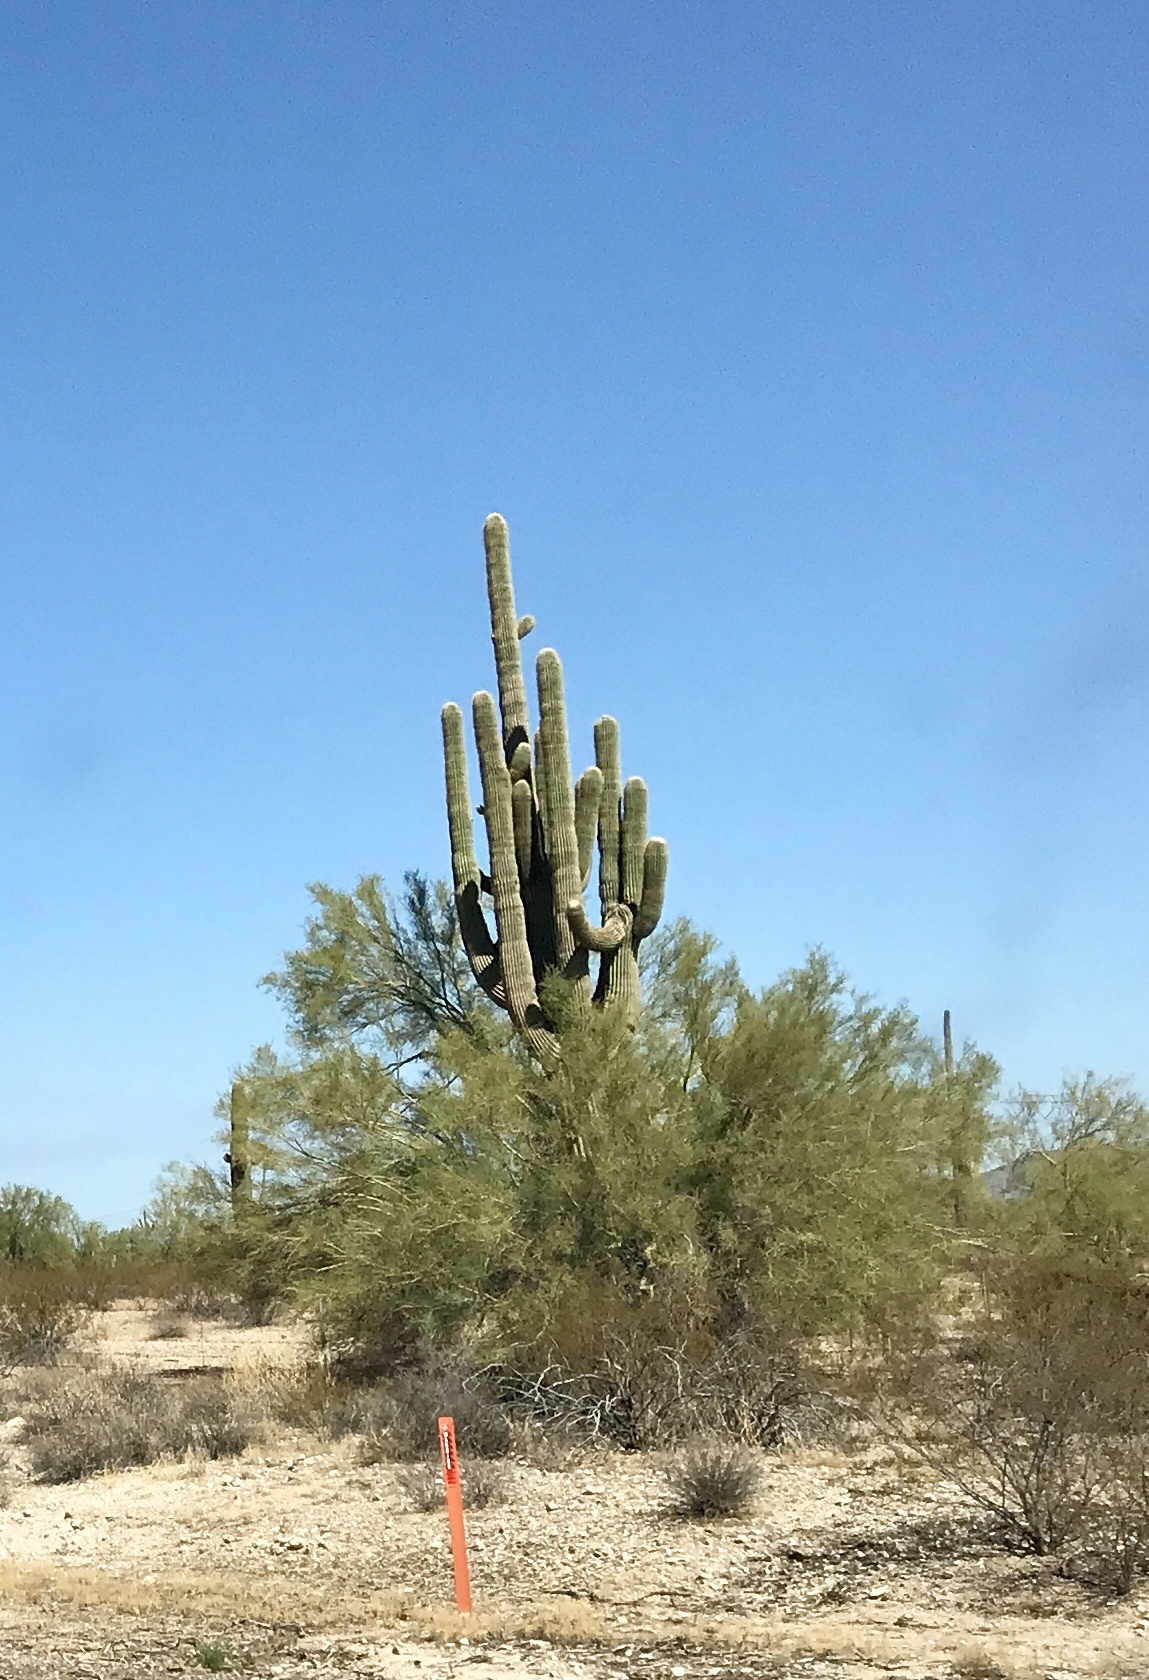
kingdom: Plantae
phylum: Tracheophyta
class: Magnoliopsida
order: Caryophyllales
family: Cactaceae
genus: Carnegiea
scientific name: Carnegiea gigantea
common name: Saguaro
